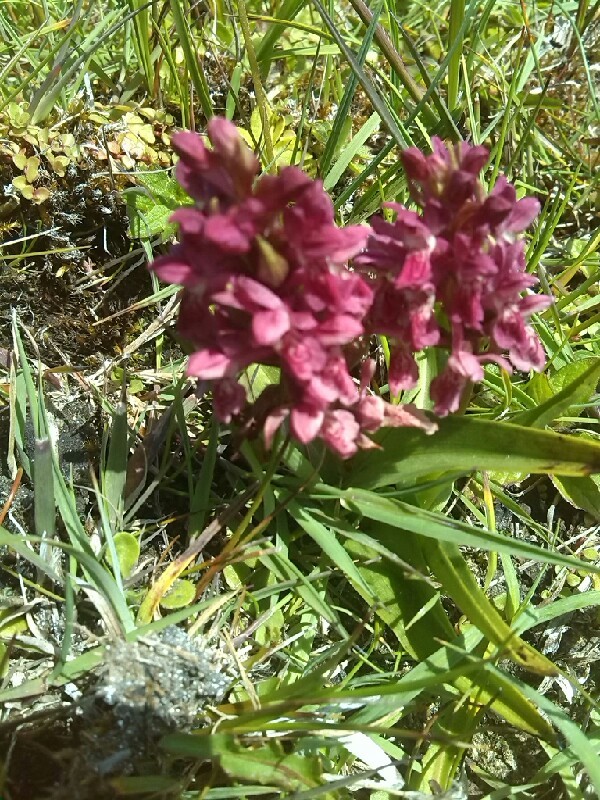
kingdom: Plantae
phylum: Tracheophyta
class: Liliopsida
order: Asparagales
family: Orchidaceae
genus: Dactylorhiza
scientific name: Dactylorhiza incarnata
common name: Early marsh-orchid
